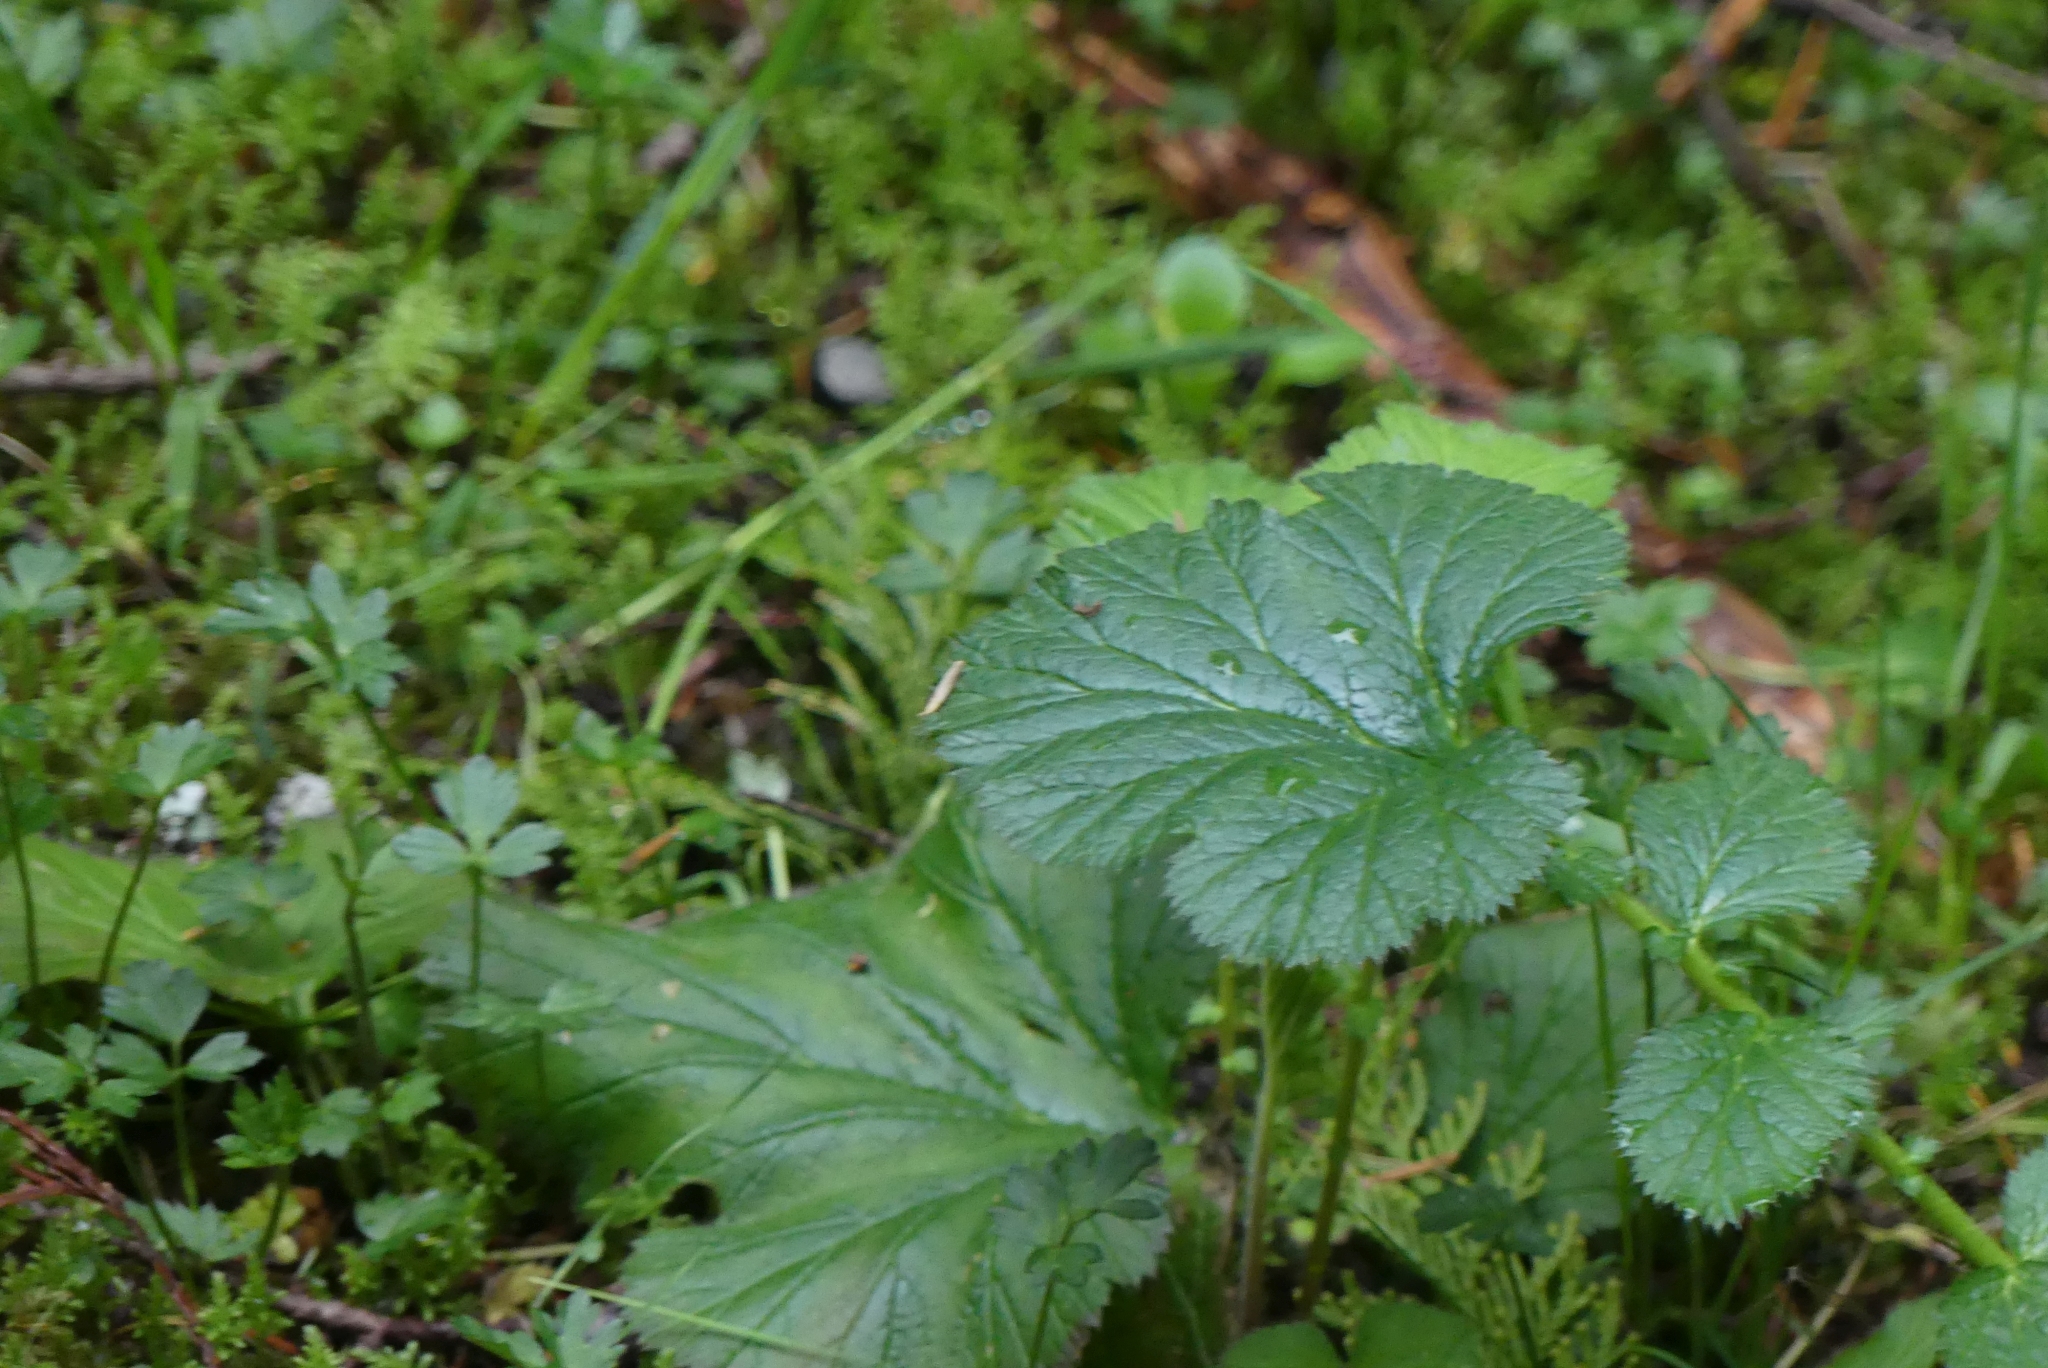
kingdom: Plantae
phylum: Tracheophyta
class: Magnoliopsida
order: Rosales
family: Rosaceae
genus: Geum
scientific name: Geum macrophyllum
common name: Large-leaved avens
